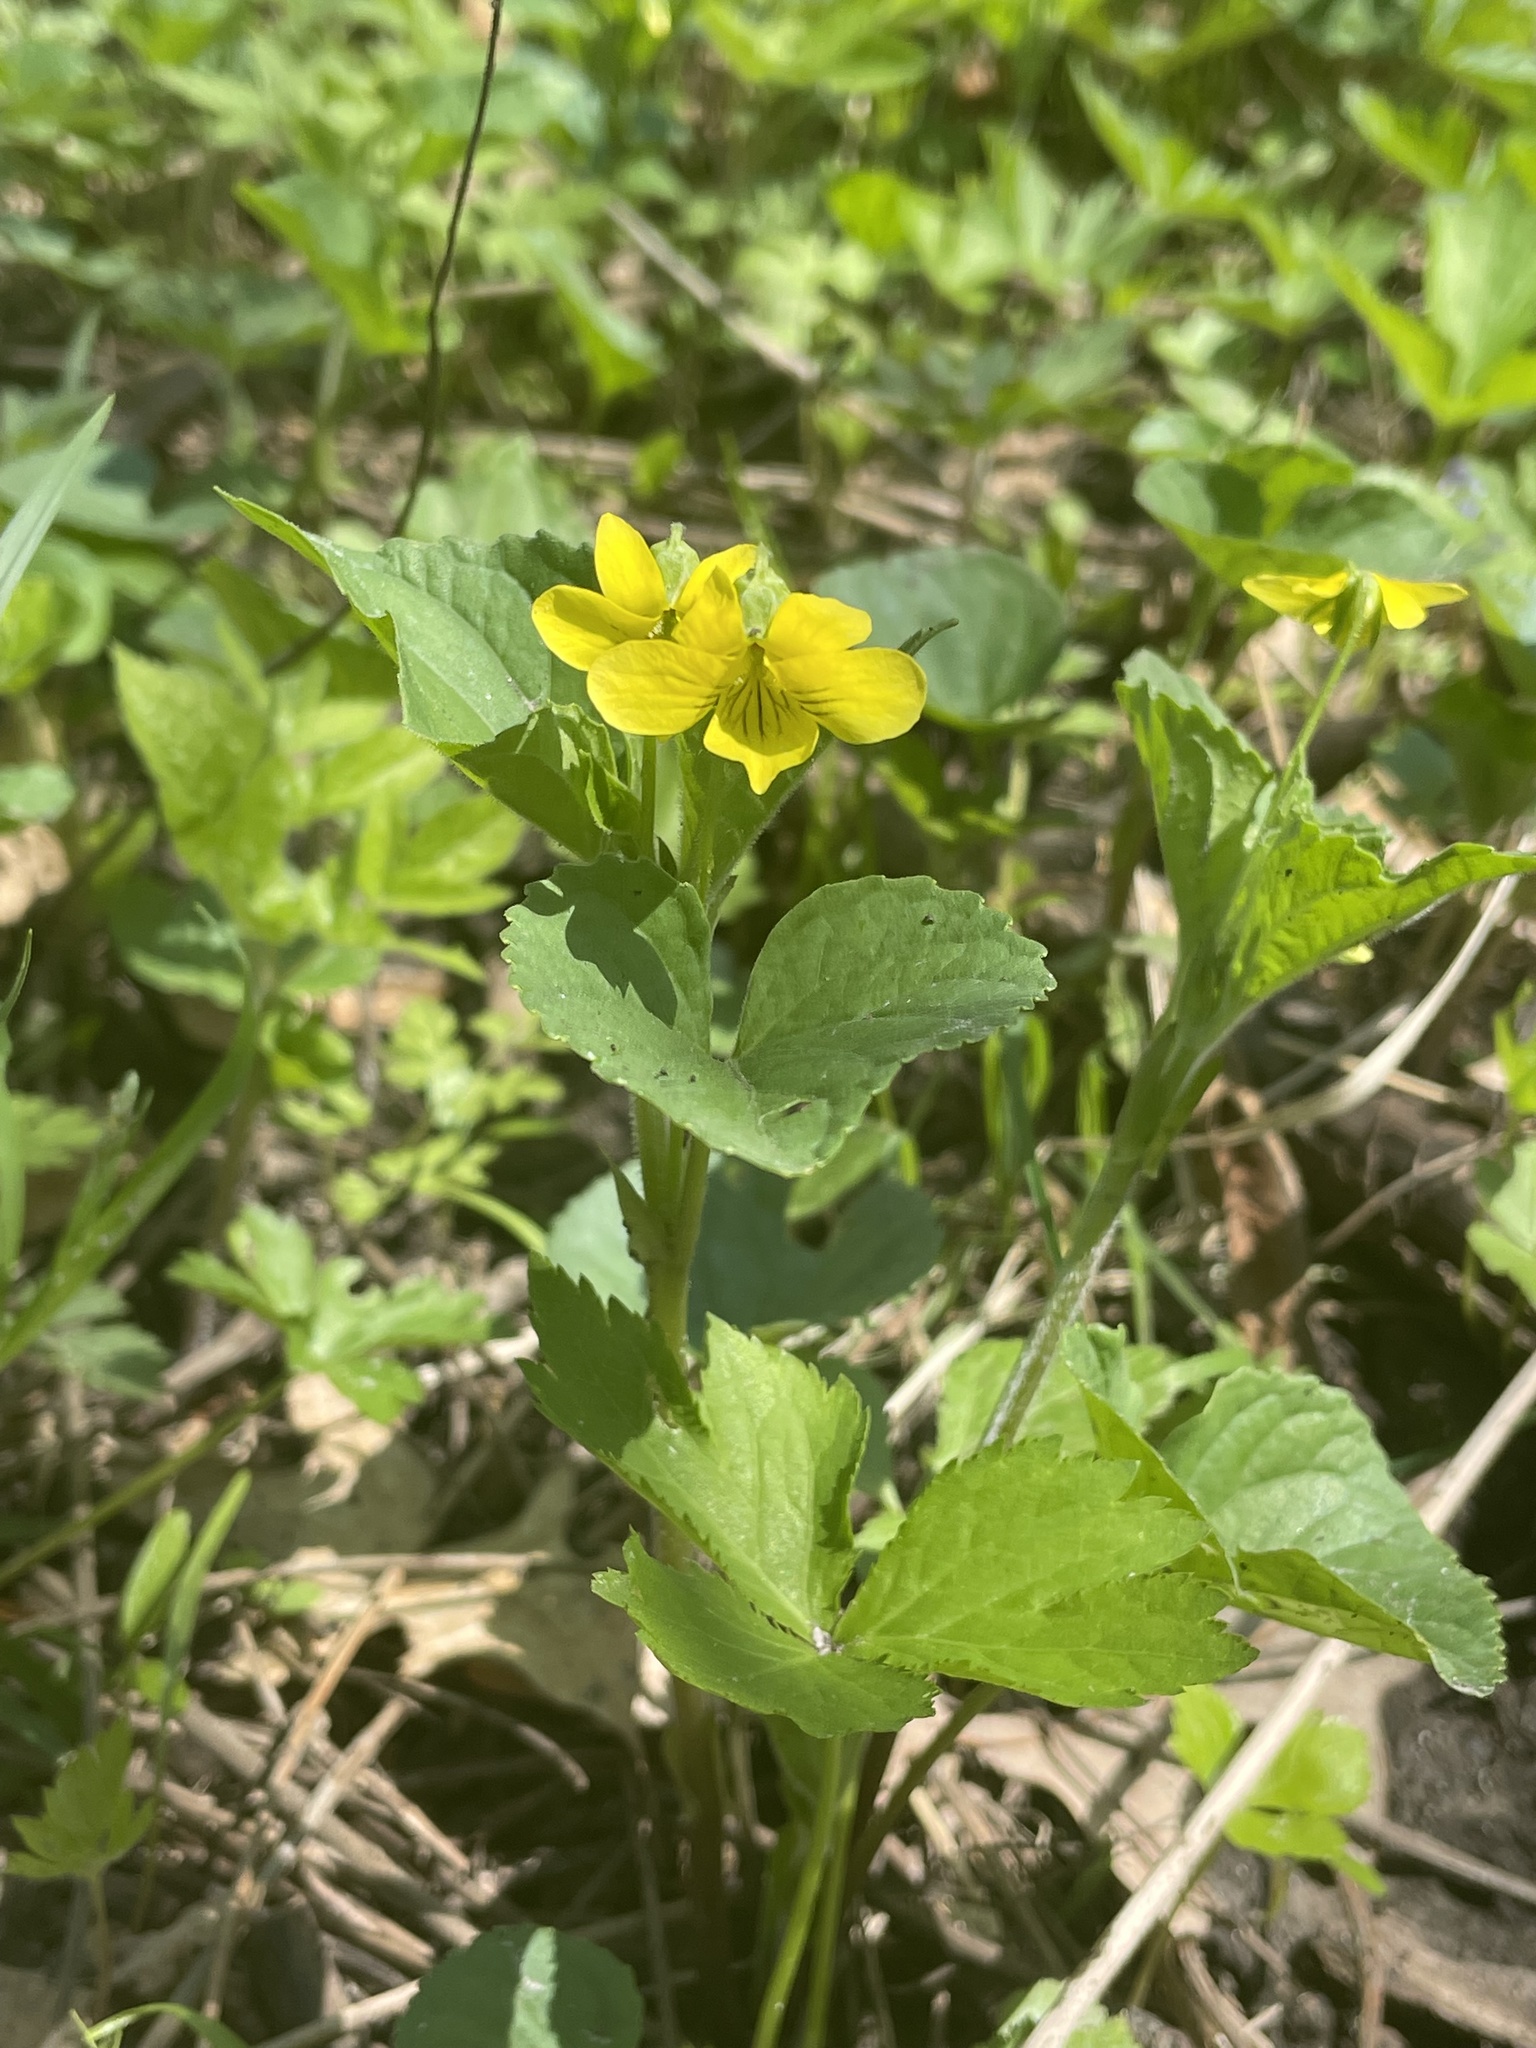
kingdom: Plantae
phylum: Tracheophyta
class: Magnoliopsida
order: Malpighiales
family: Violaceae
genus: Viola
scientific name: Viola eriocarpa
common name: Smooth yellow violet
